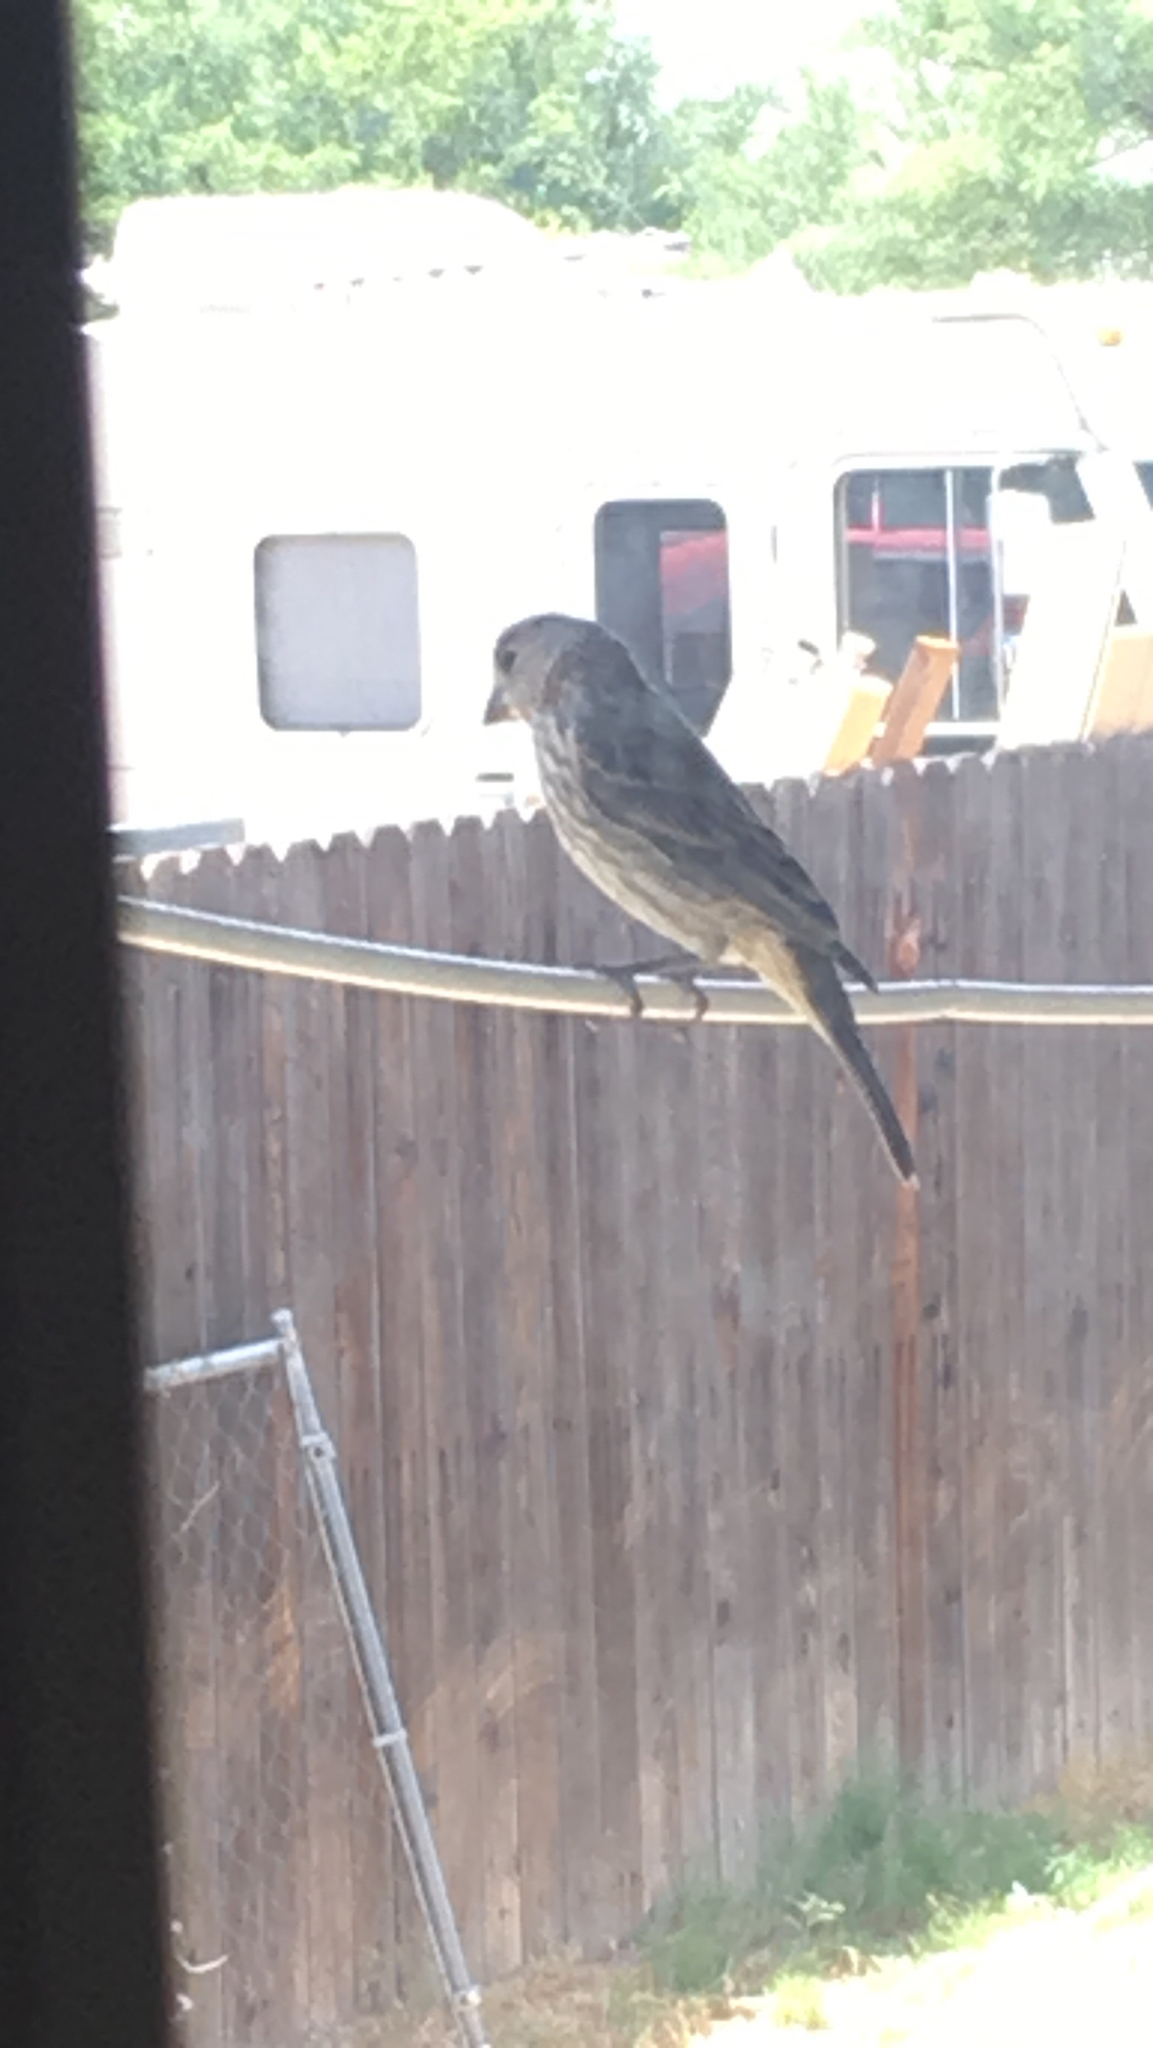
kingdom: Animalia
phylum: Chordata
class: Aves
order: Passeriformes
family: Fringillidae
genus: Haemorhous
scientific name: Haemorhous mexicanus
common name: House finch
